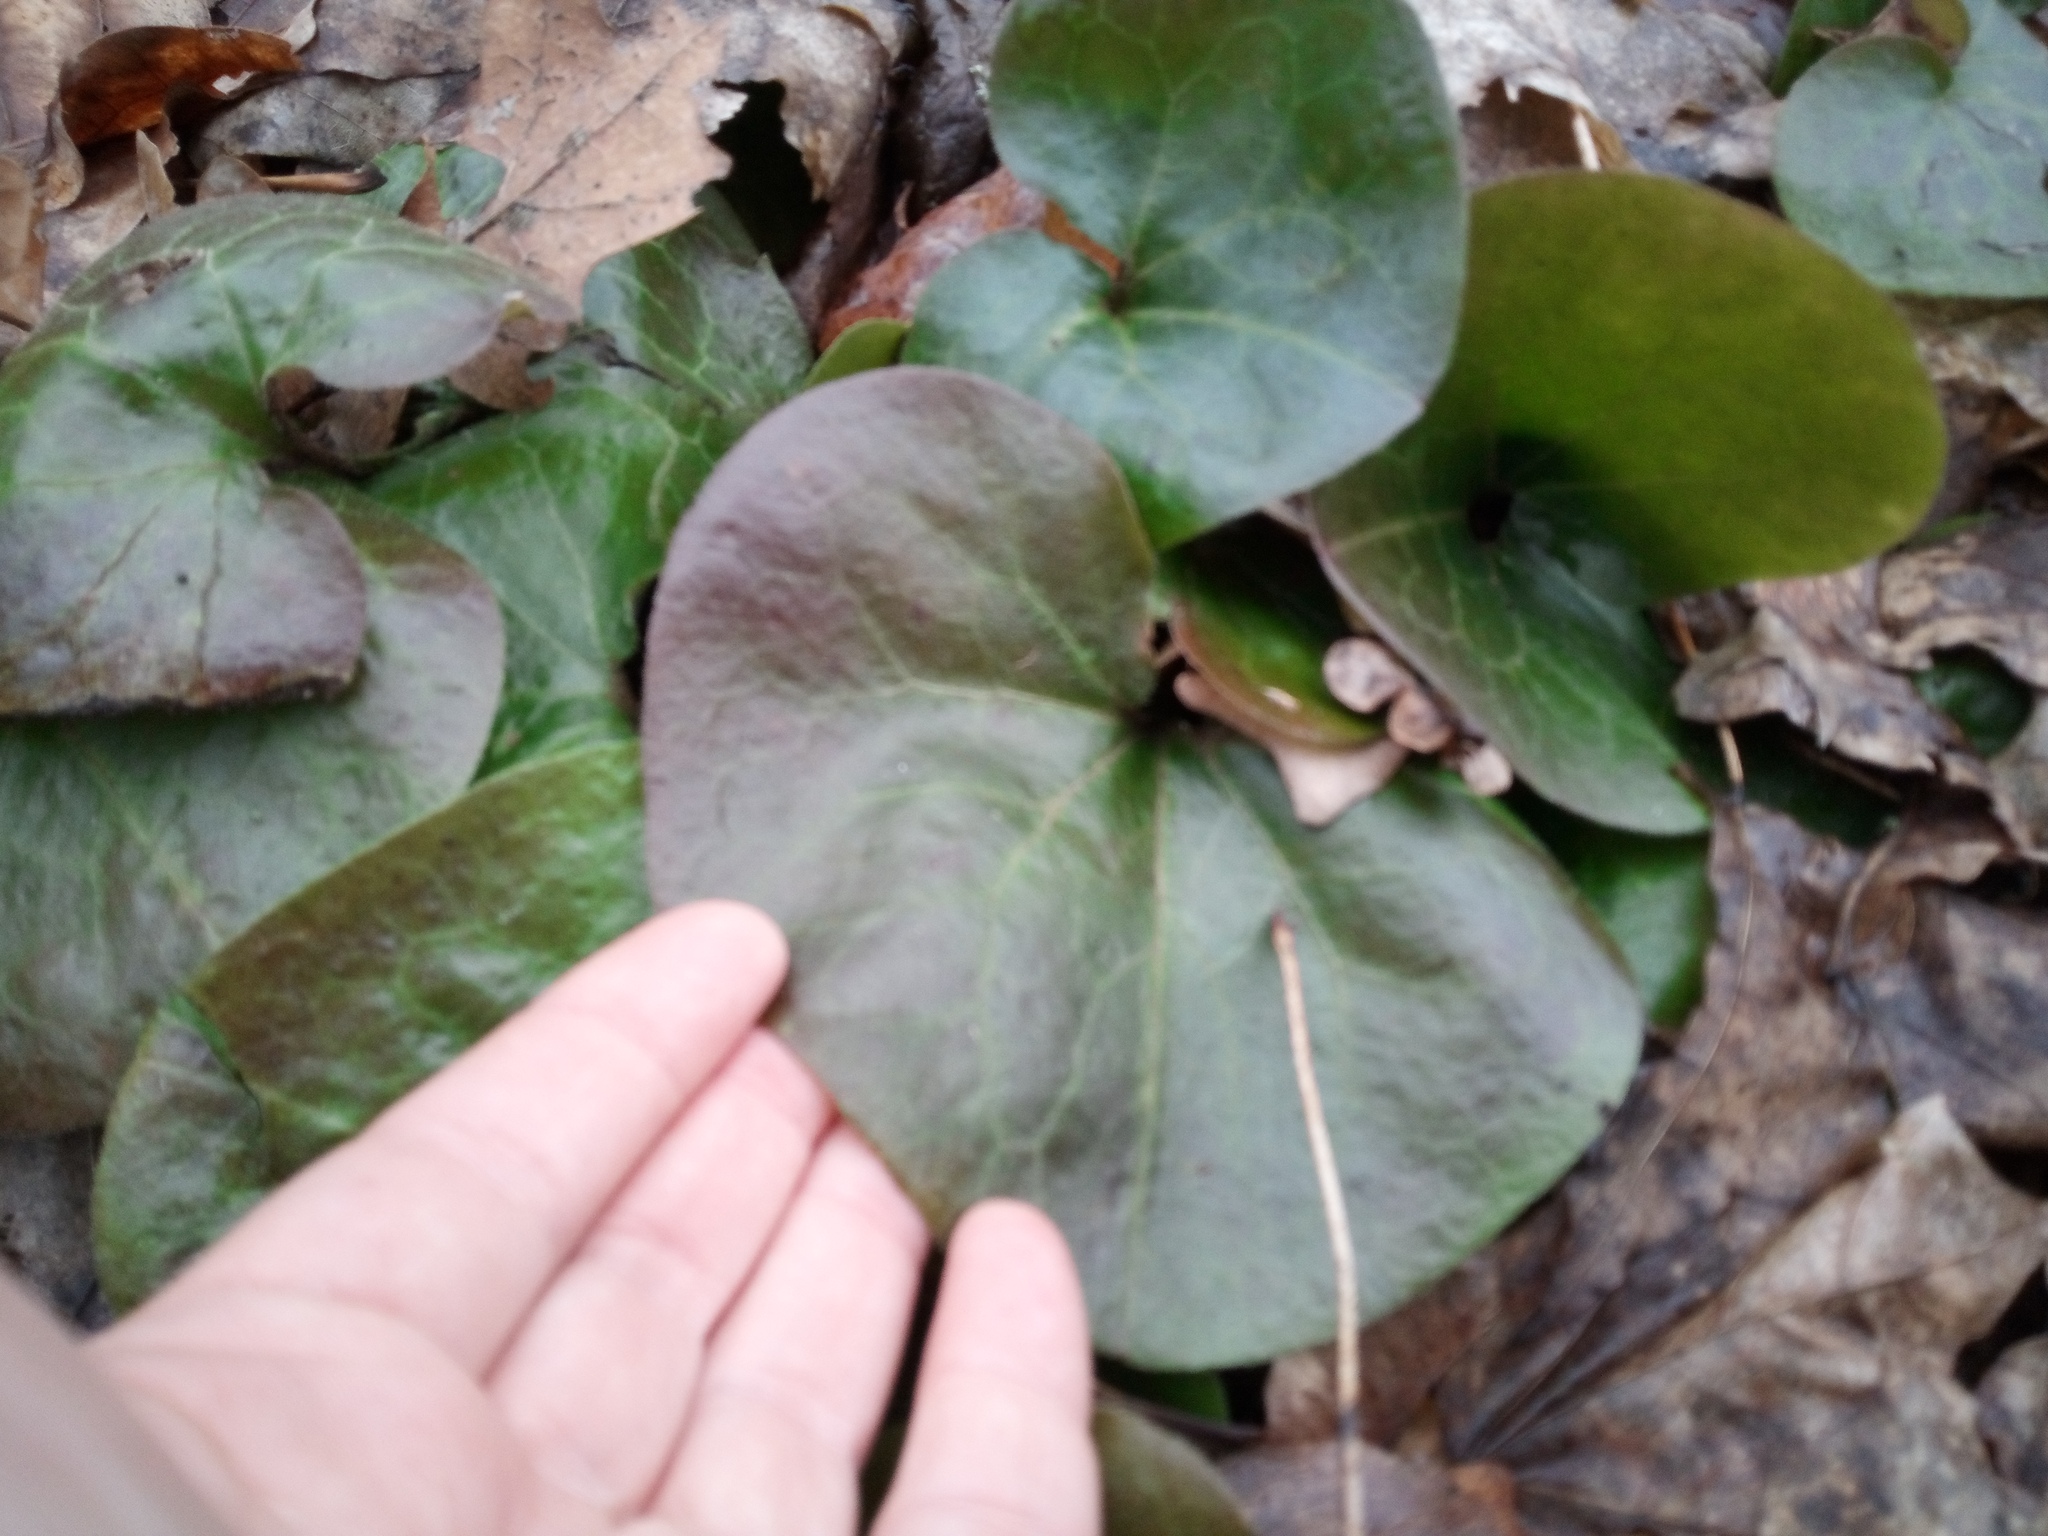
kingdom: Plantae
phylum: Tracheophyta
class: Magnoliopsida
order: Piperales
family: Aristolochiaceae
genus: Asarum
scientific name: Asarum europaeum
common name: Asarabacca
